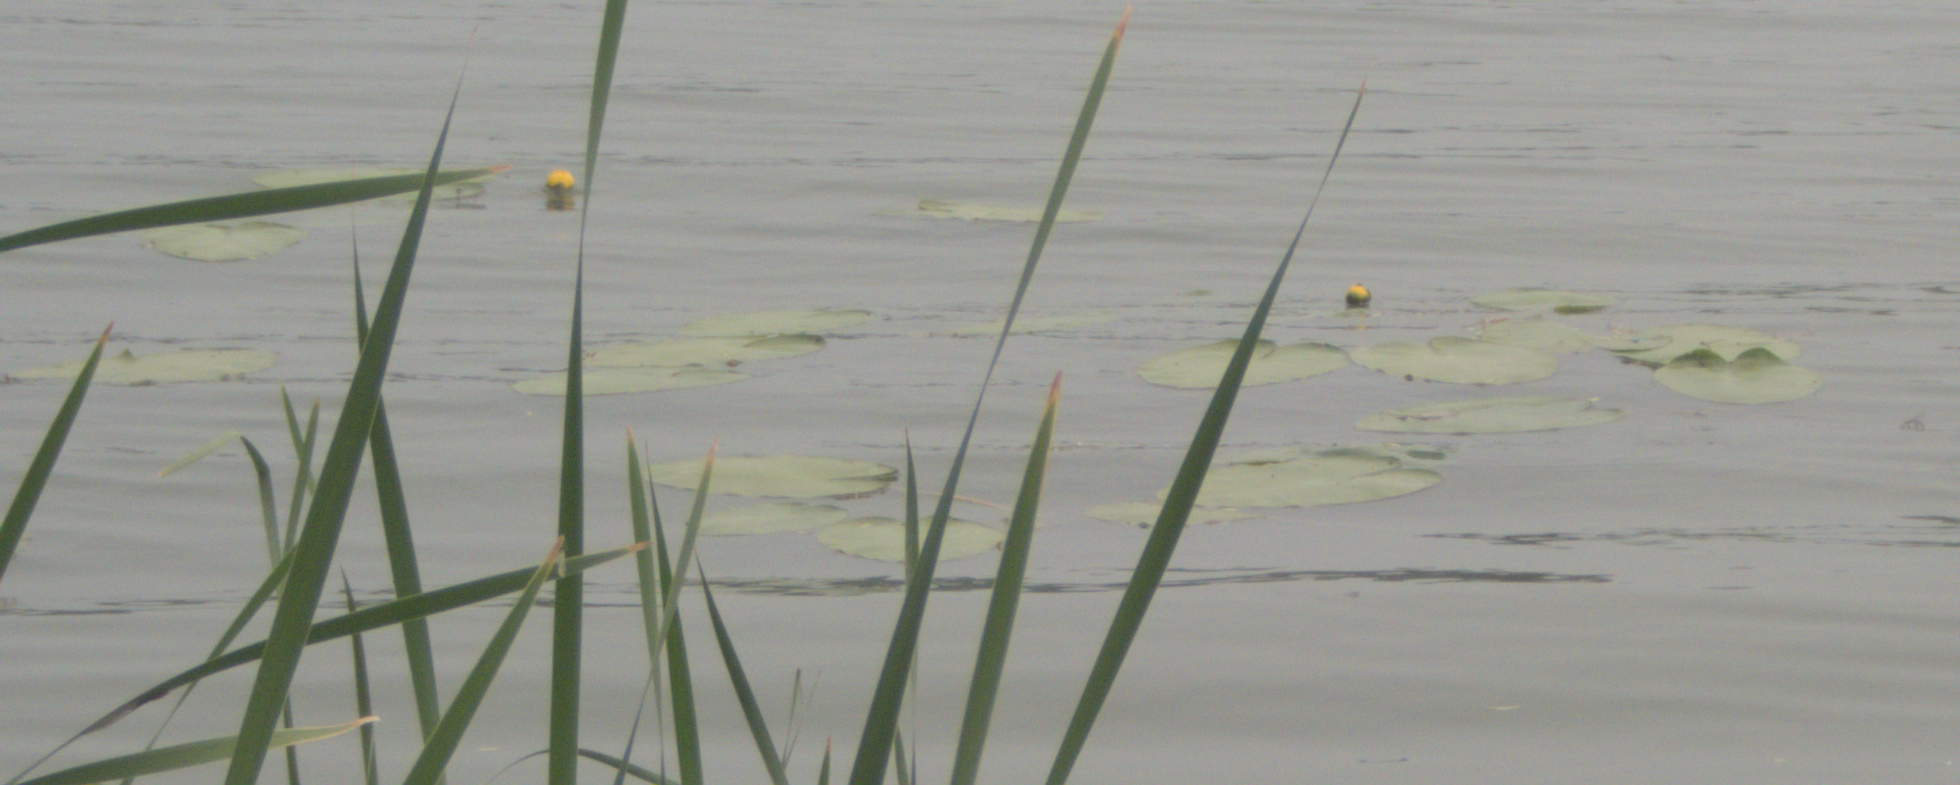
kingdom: Plantae
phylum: Tracheophyta
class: Magnoliopsida
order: Nymphaeales
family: Nymphaeaceae
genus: Nuphar
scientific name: Nuphar variegata
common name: Beaver-root
